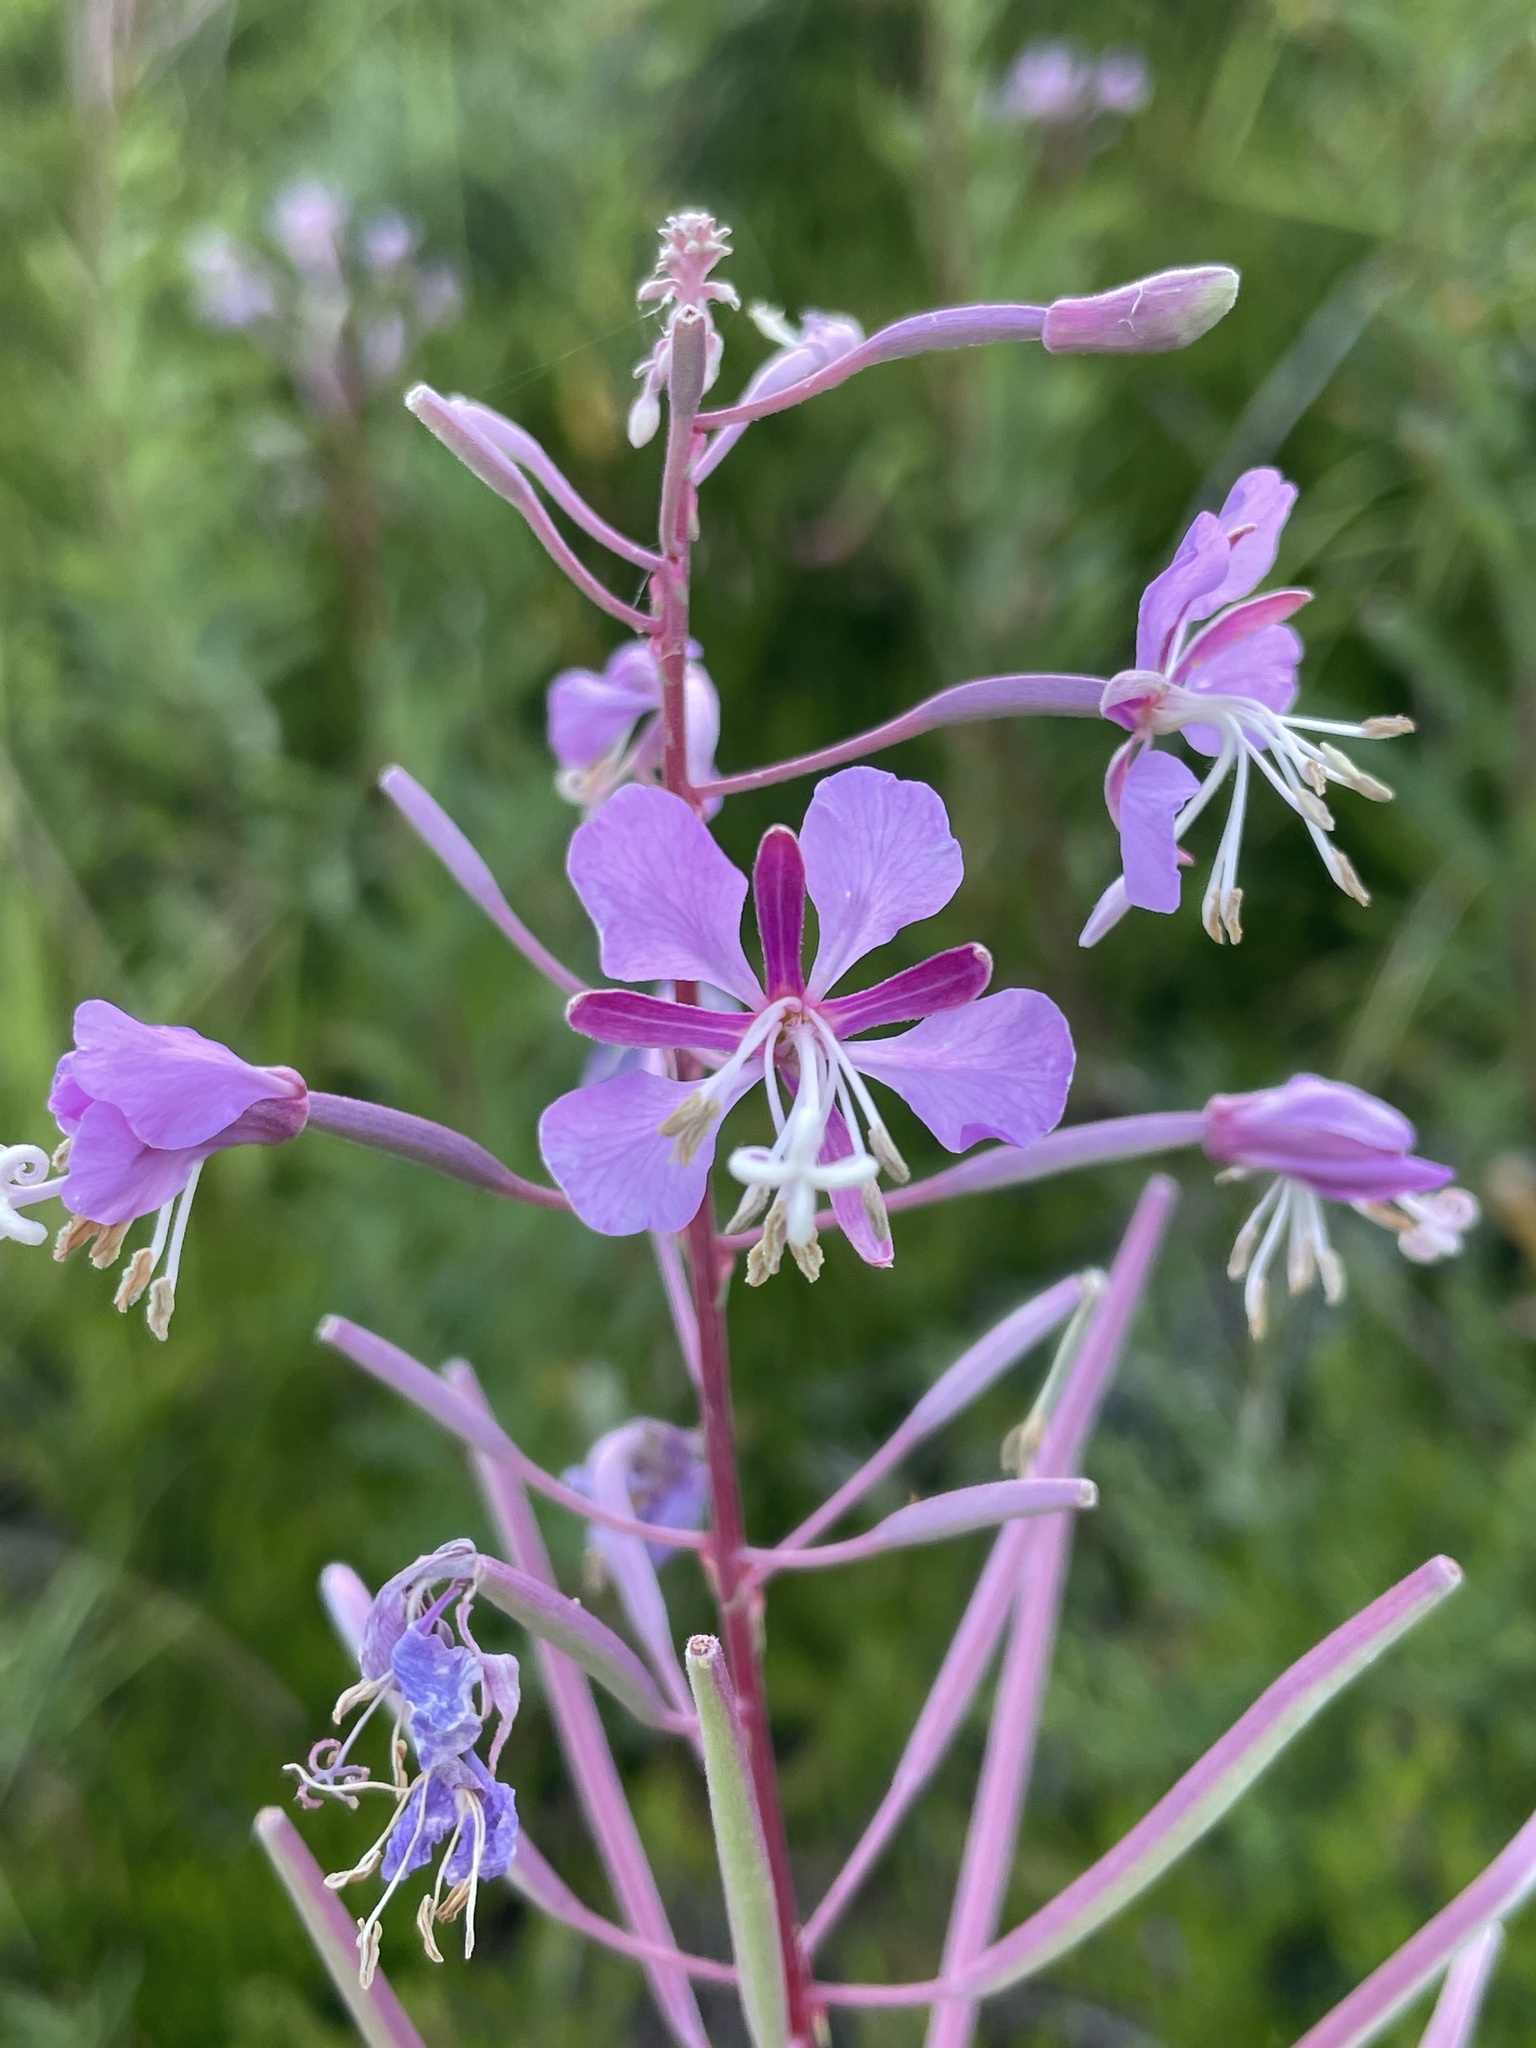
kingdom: Plantae
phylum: Tracheophyta
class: Magnoliopsida
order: Myrtales
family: Onagraceae
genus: Chamaenerion
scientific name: Chamaenerion angustifolium
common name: Fireweed
